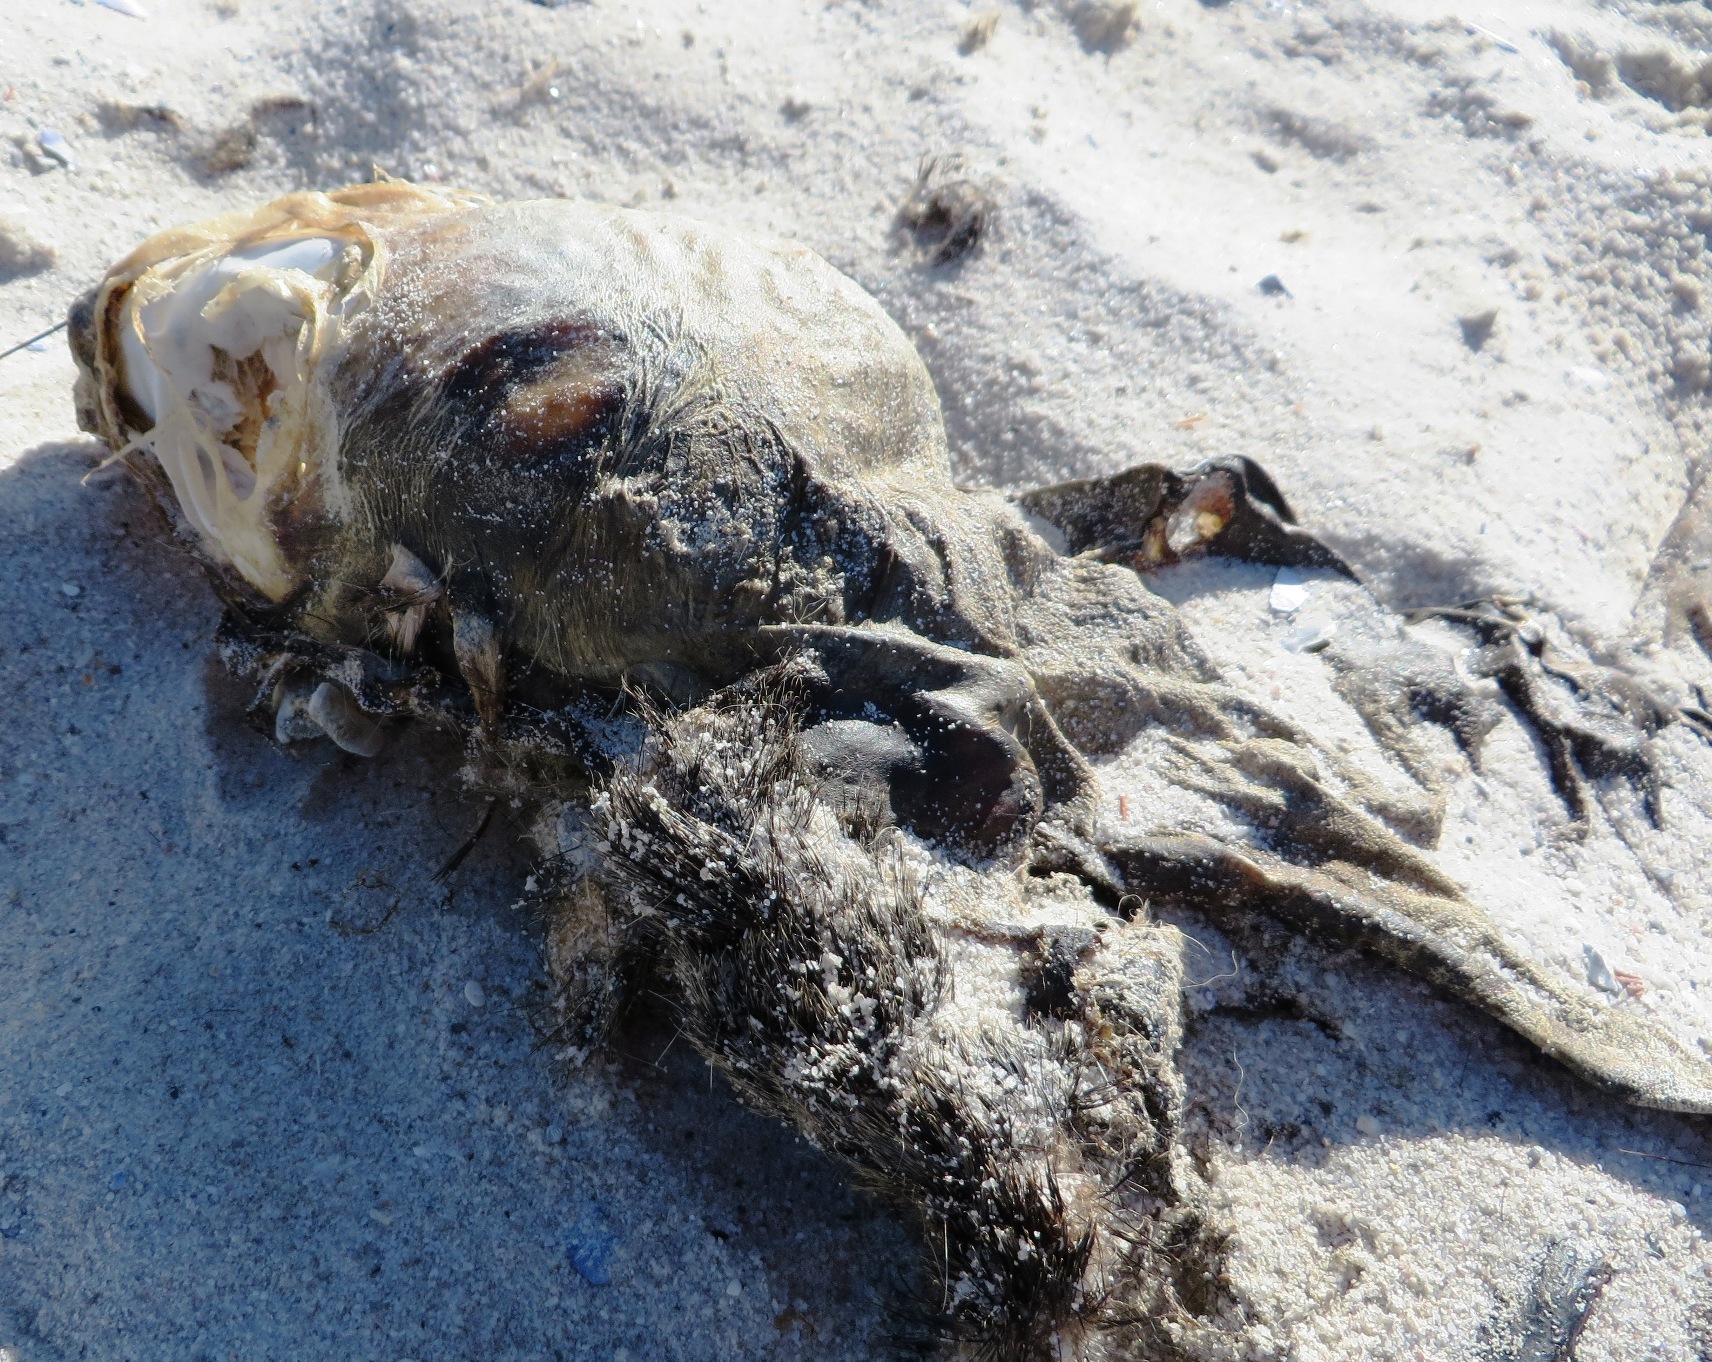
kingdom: Animalia
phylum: Chordata
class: Mammalia
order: Carnivora
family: Otariidae
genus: Arctocephalus
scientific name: Arctocephalus pusillus
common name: Brown fur seal
